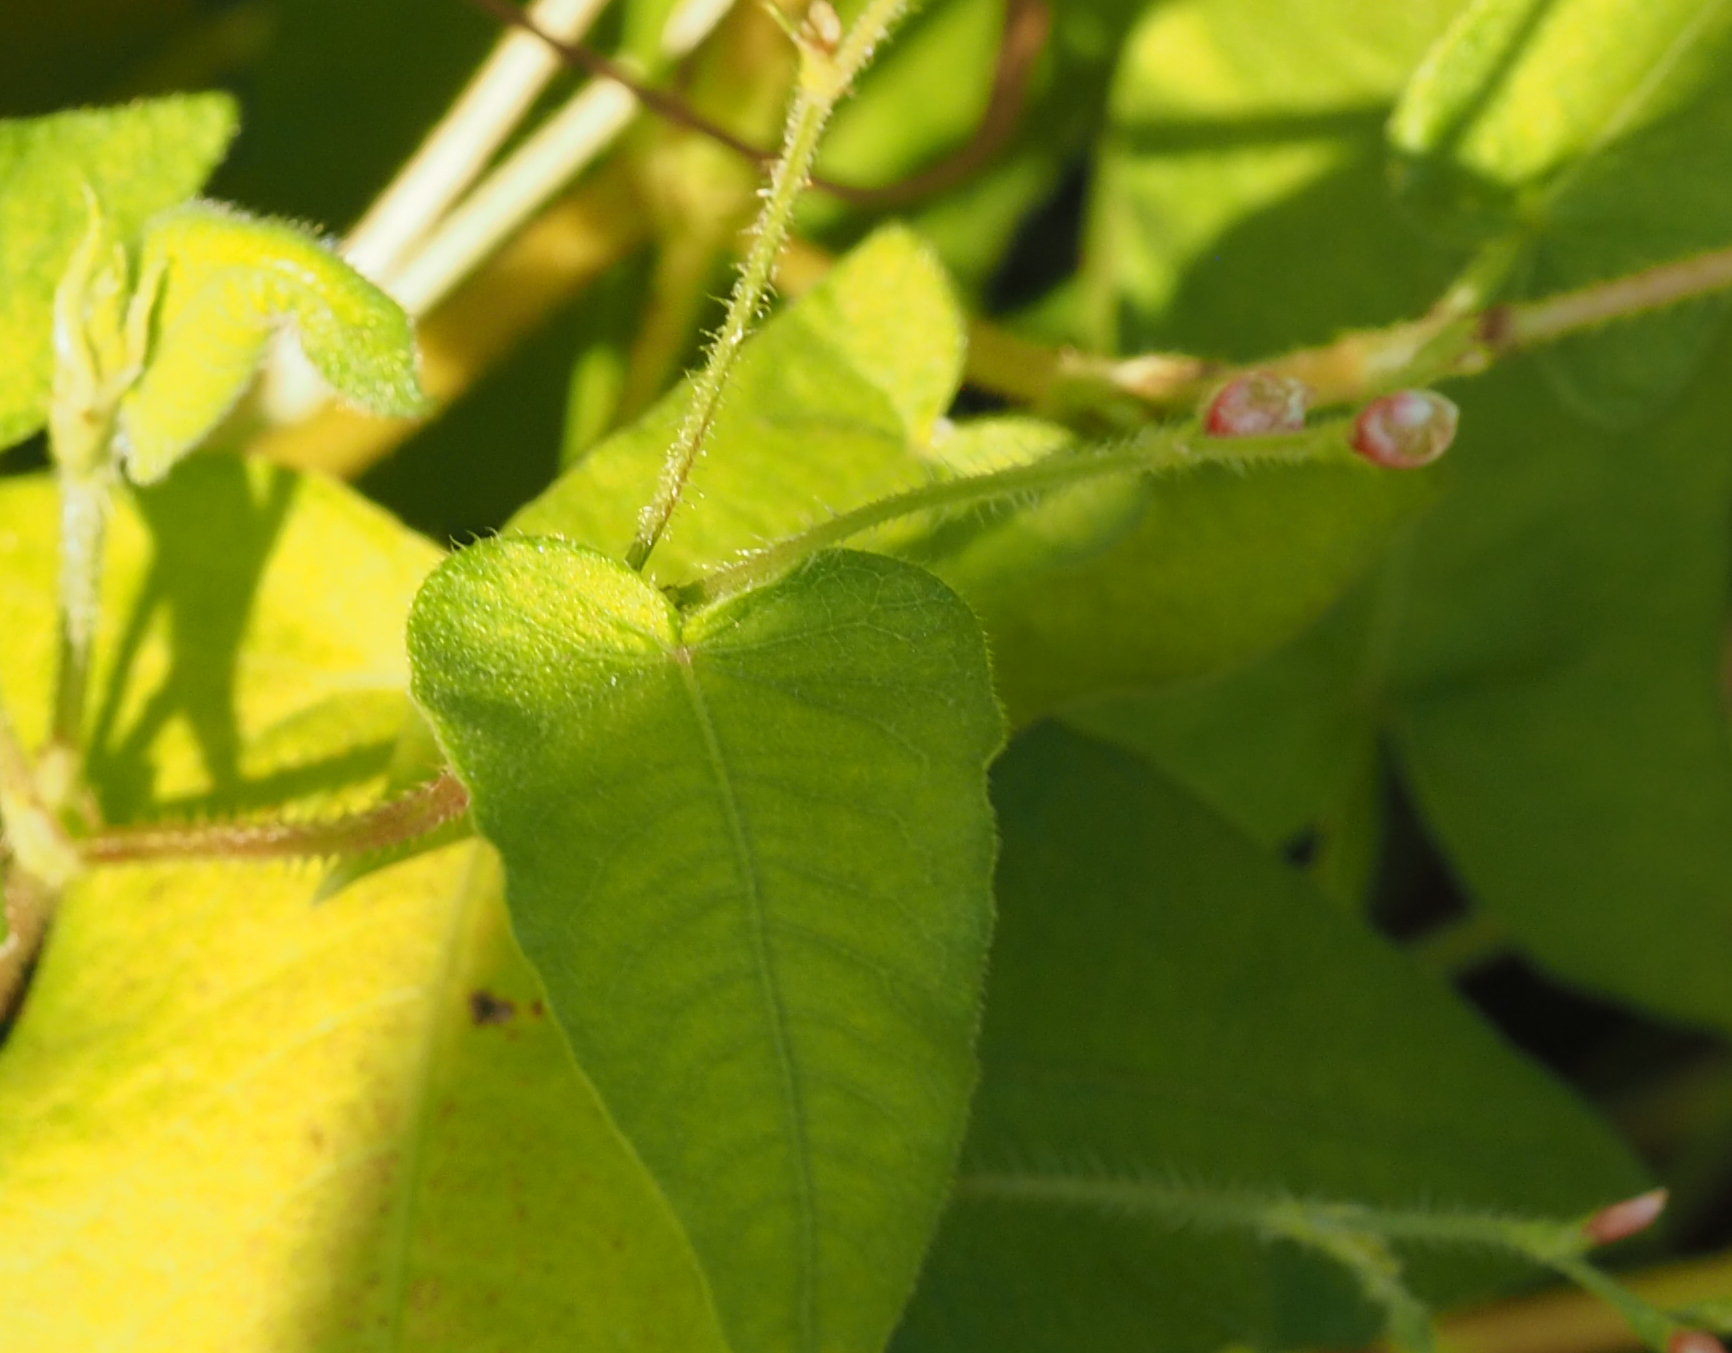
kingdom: Plantae
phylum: Tracheophyta
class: Magnoliopsida
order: Caryophyllales
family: Polygonaceae
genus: Persicaria
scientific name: Persicaria arifolia
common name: Halberd-leaved tear-thumb
